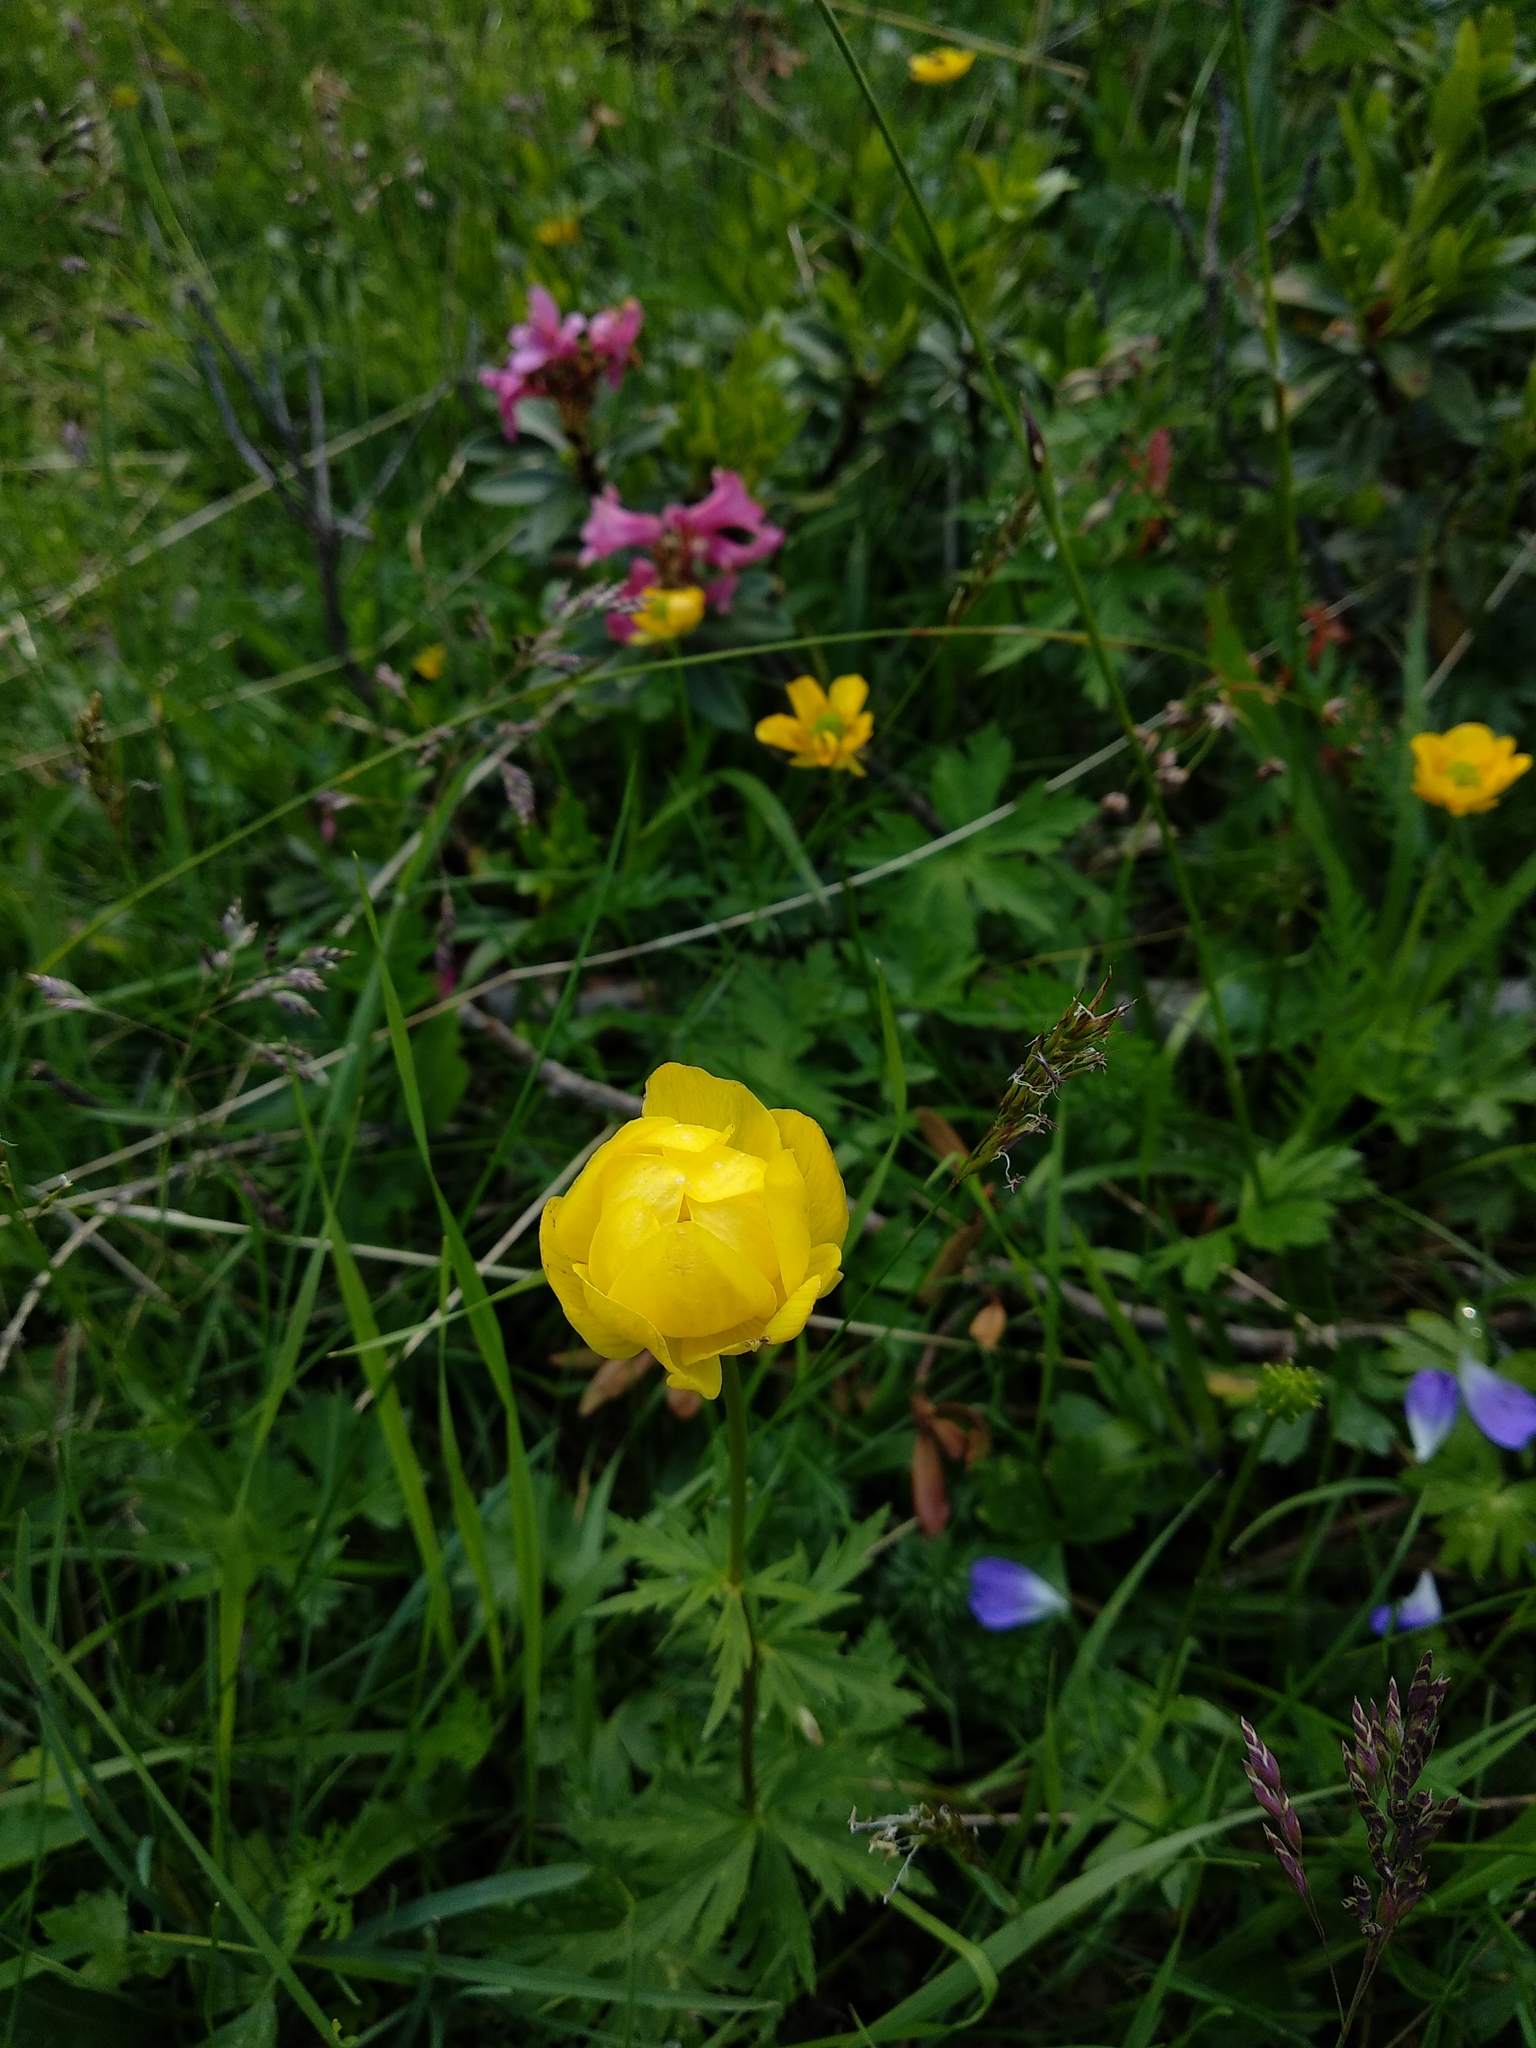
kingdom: Plantae
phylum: Tracheophyta
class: Magnoliopsida
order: Ranunculales
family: Ranunculaceae
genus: Trollius
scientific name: Trollius europaeus
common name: European globeflower
